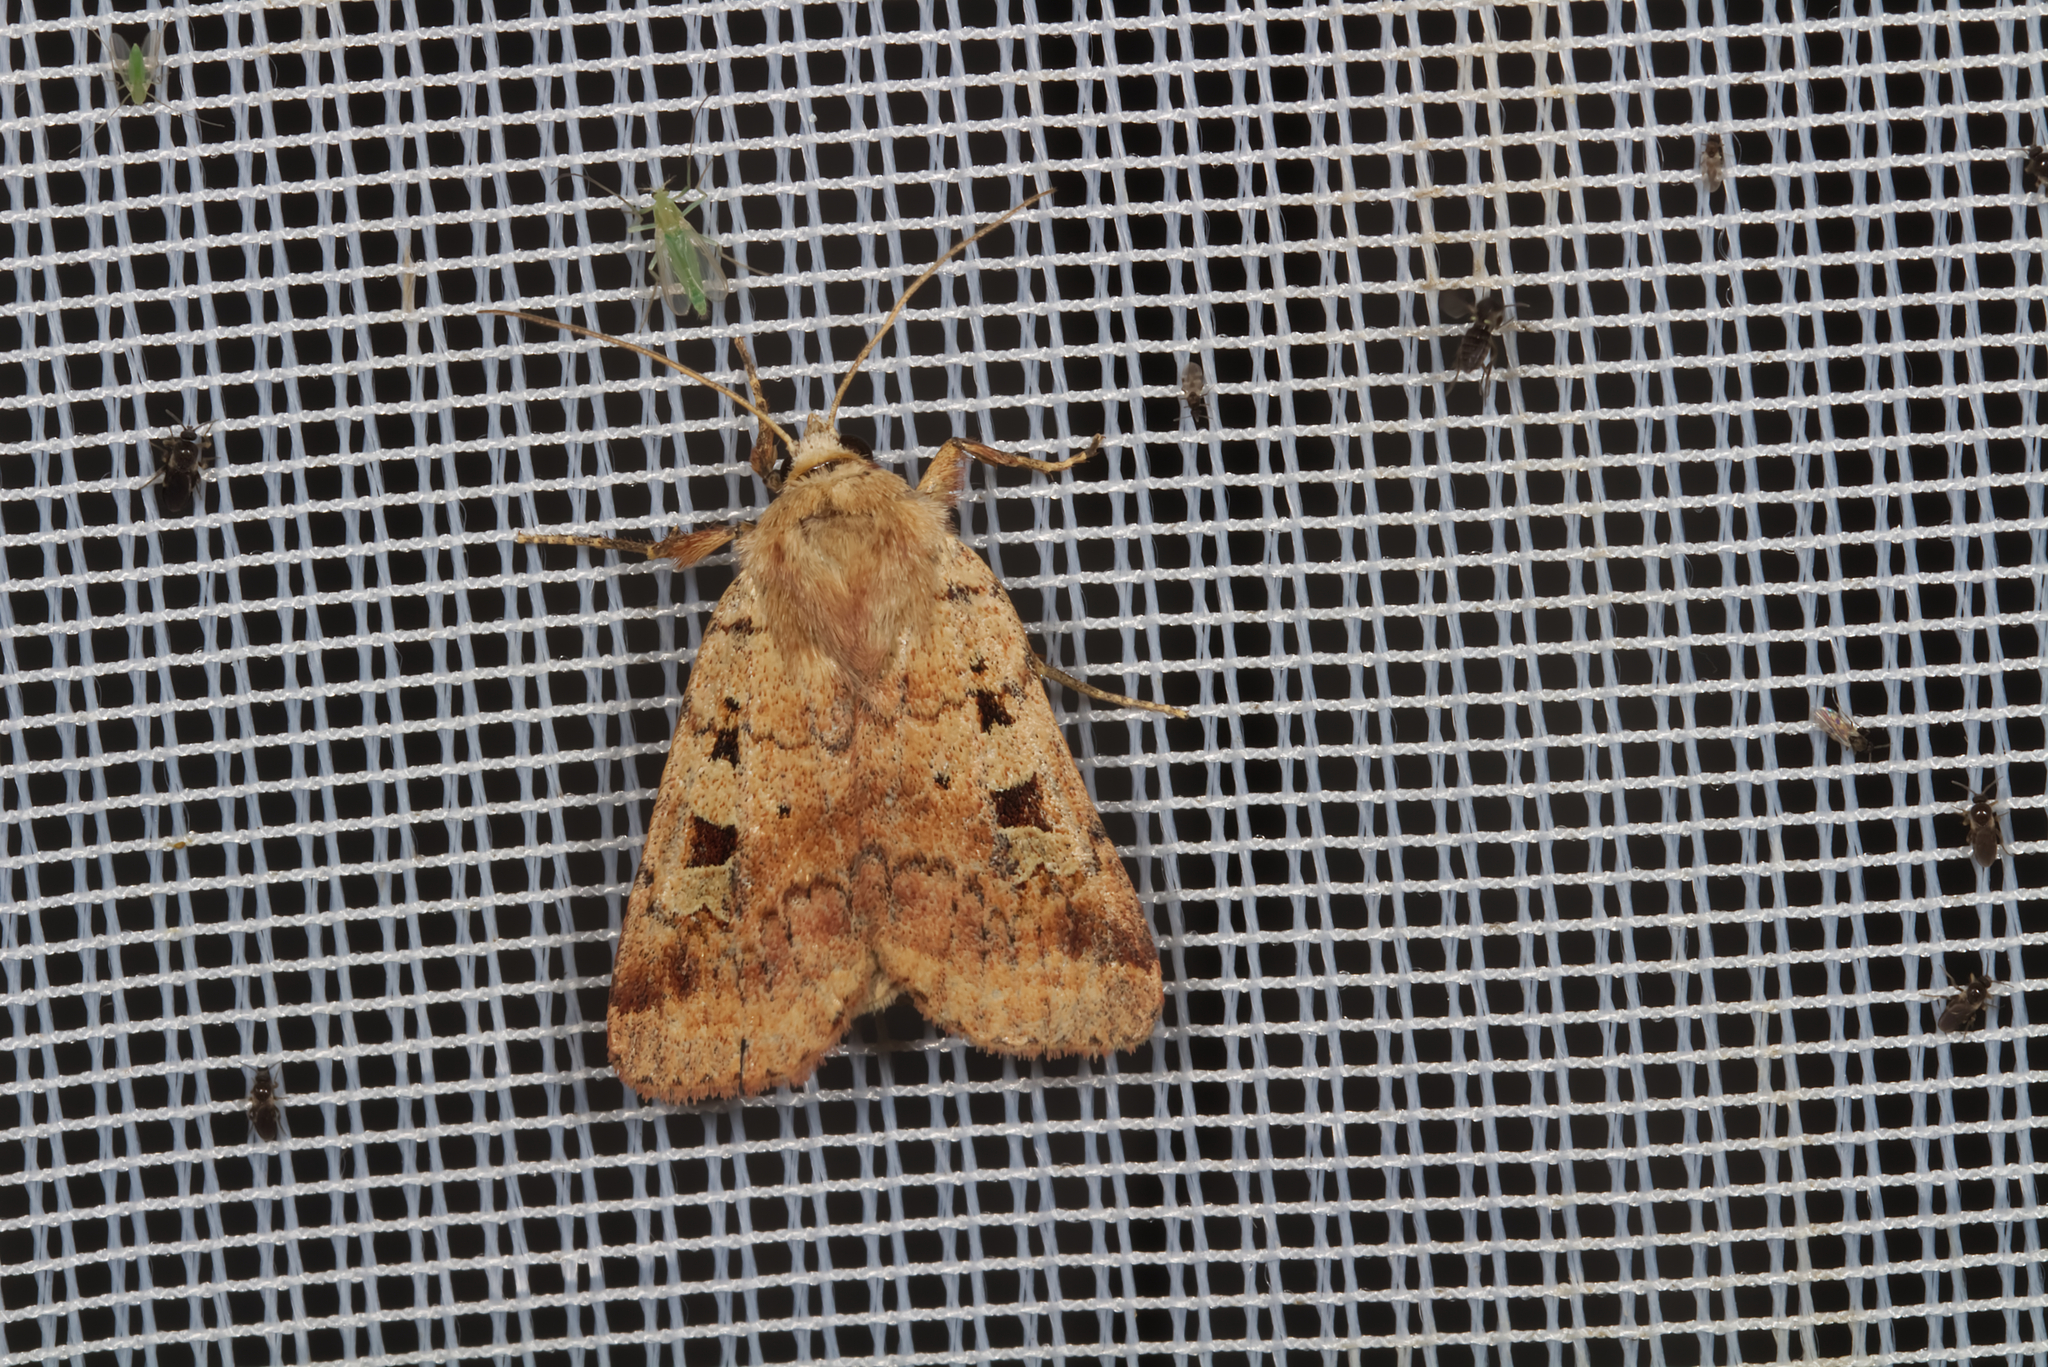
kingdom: Animalia
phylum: Arthropoda
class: Insecta
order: Lepidoptera
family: Noctuidae
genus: Diarsia
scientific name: Diarsia mendica
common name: Ingrailed clay
